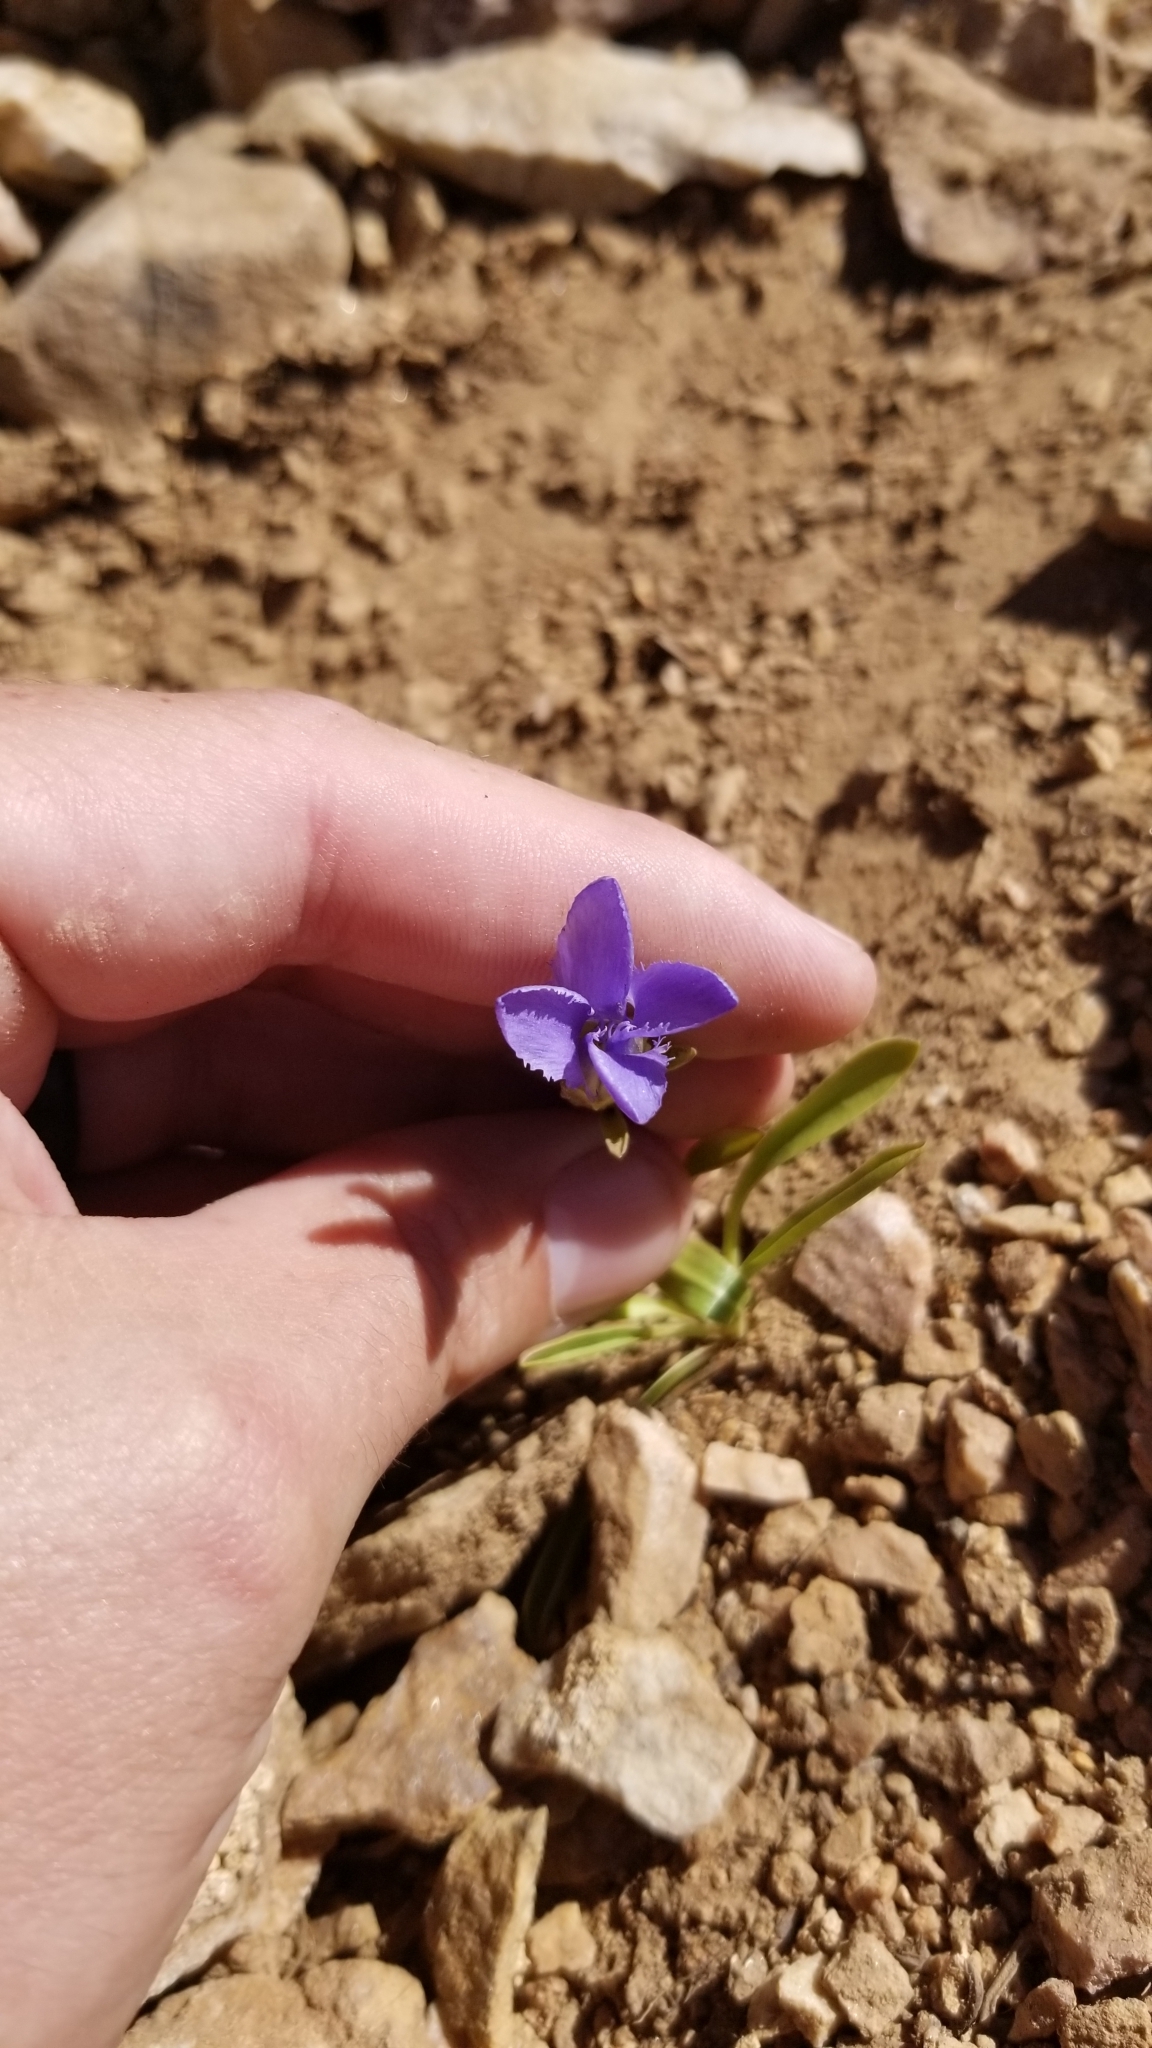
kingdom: Plantae
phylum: Tracheophyta
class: Magnoliopsida
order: Gentianales
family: Gentianaceae
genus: Gentianopsis
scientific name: Gentianopsis barbellata
